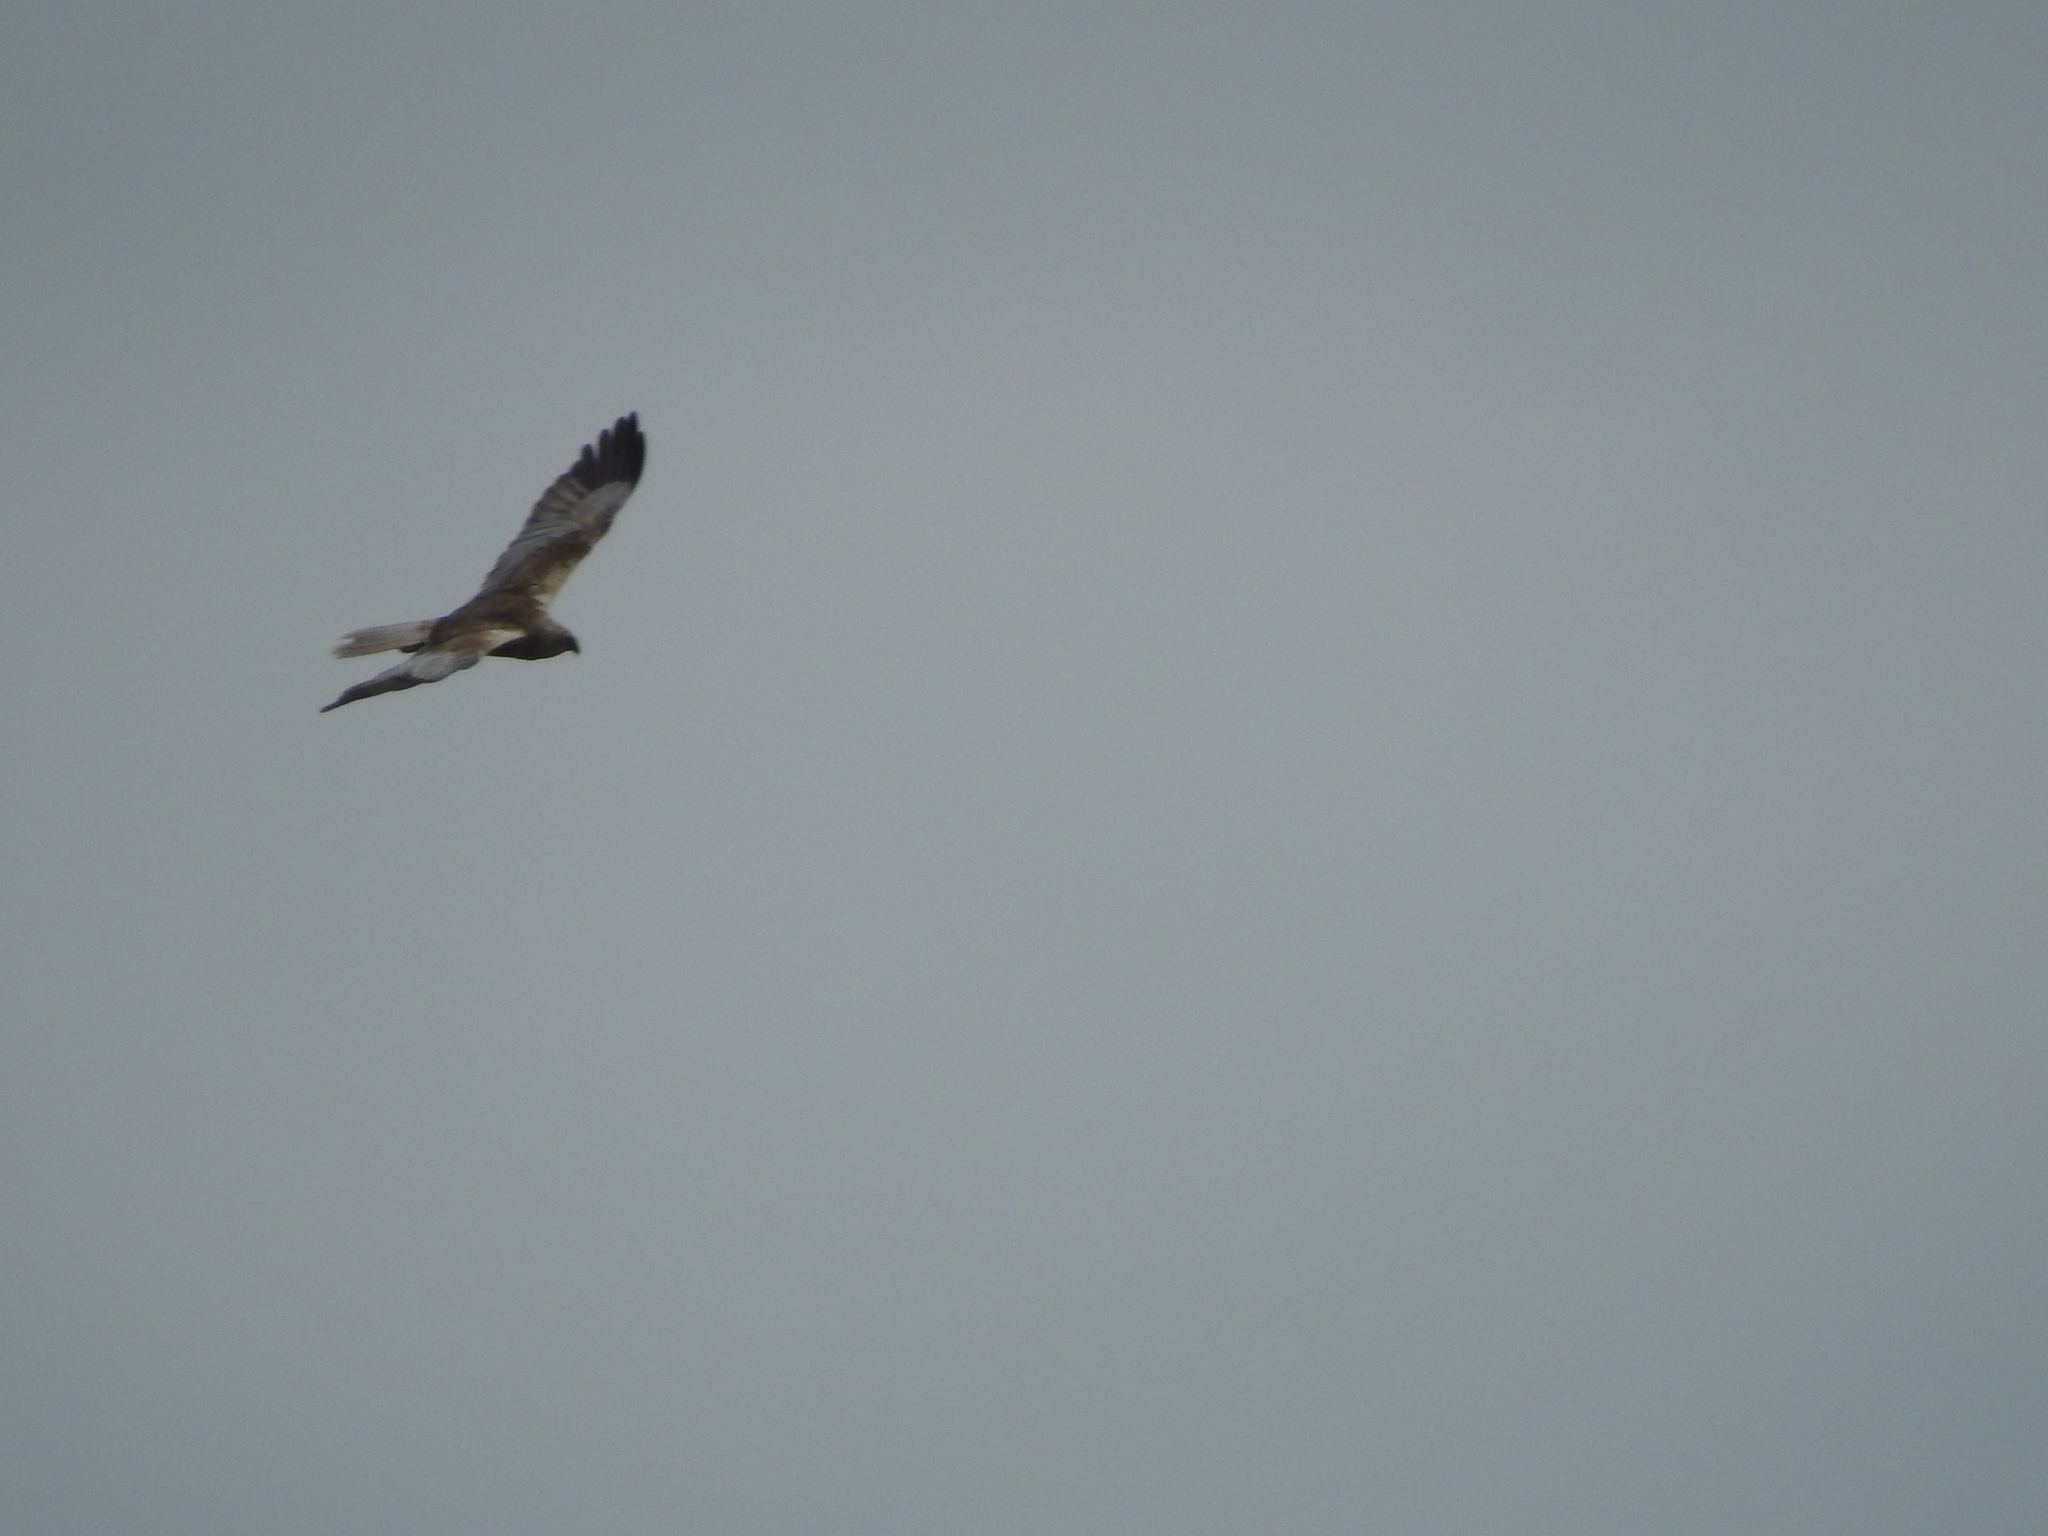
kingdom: Animalia
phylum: Chordata
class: Aves
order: Accipitriformes
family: Accipitridae
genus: Circus
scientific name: Circus aeruginosus
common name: Western marsh harrier
